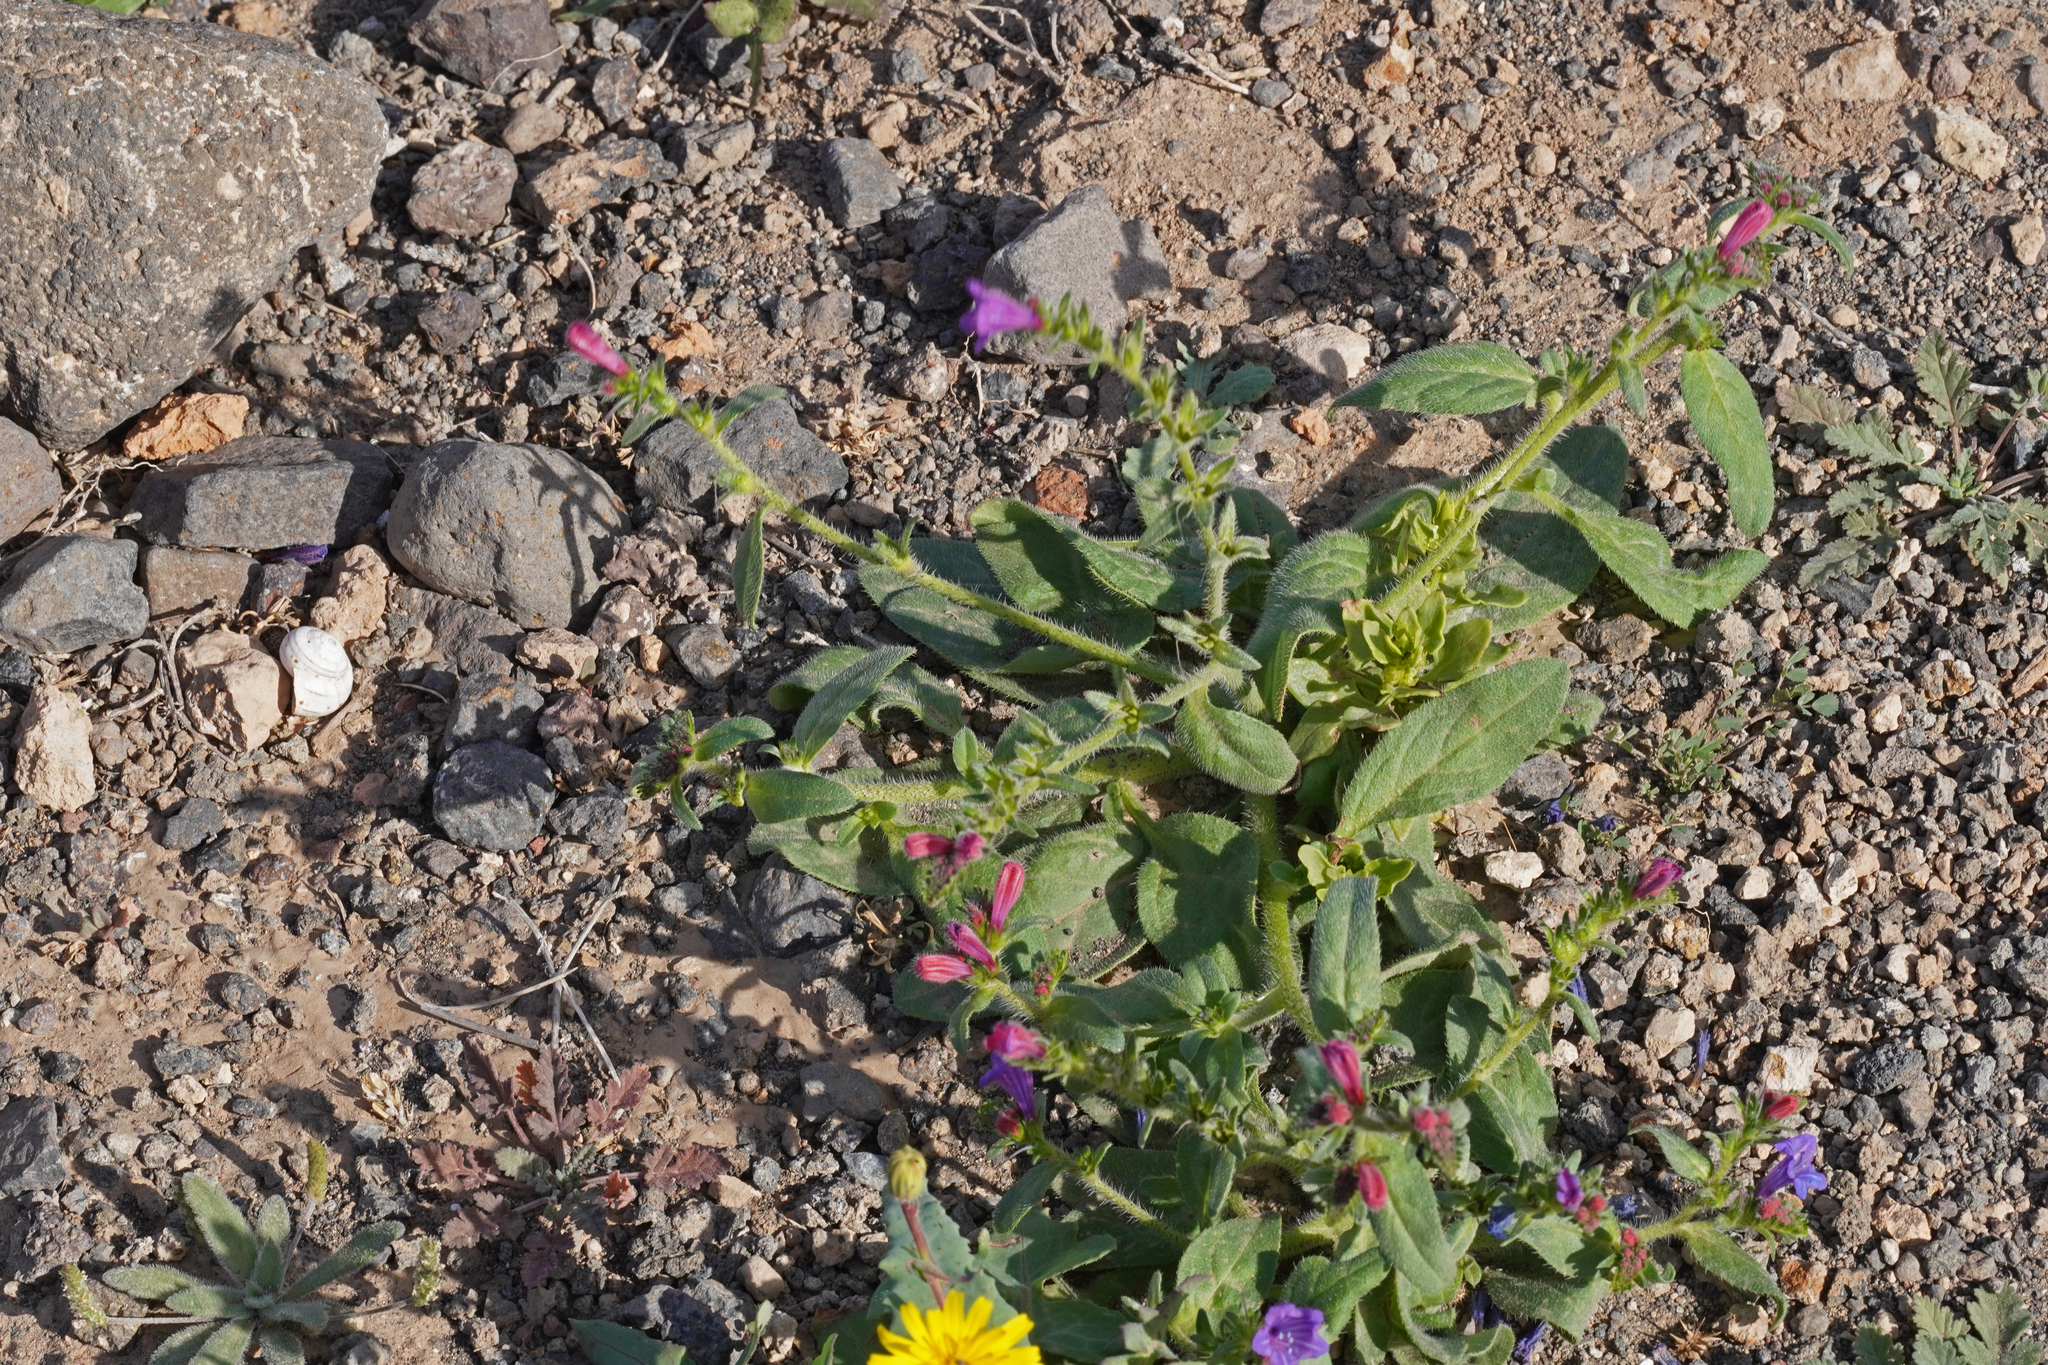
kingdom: Plantae
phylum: Tracheophyta
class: Magnoliopsida
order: Boraginales
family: Boraginaceae
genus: Echium
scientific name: Echium pitardii
